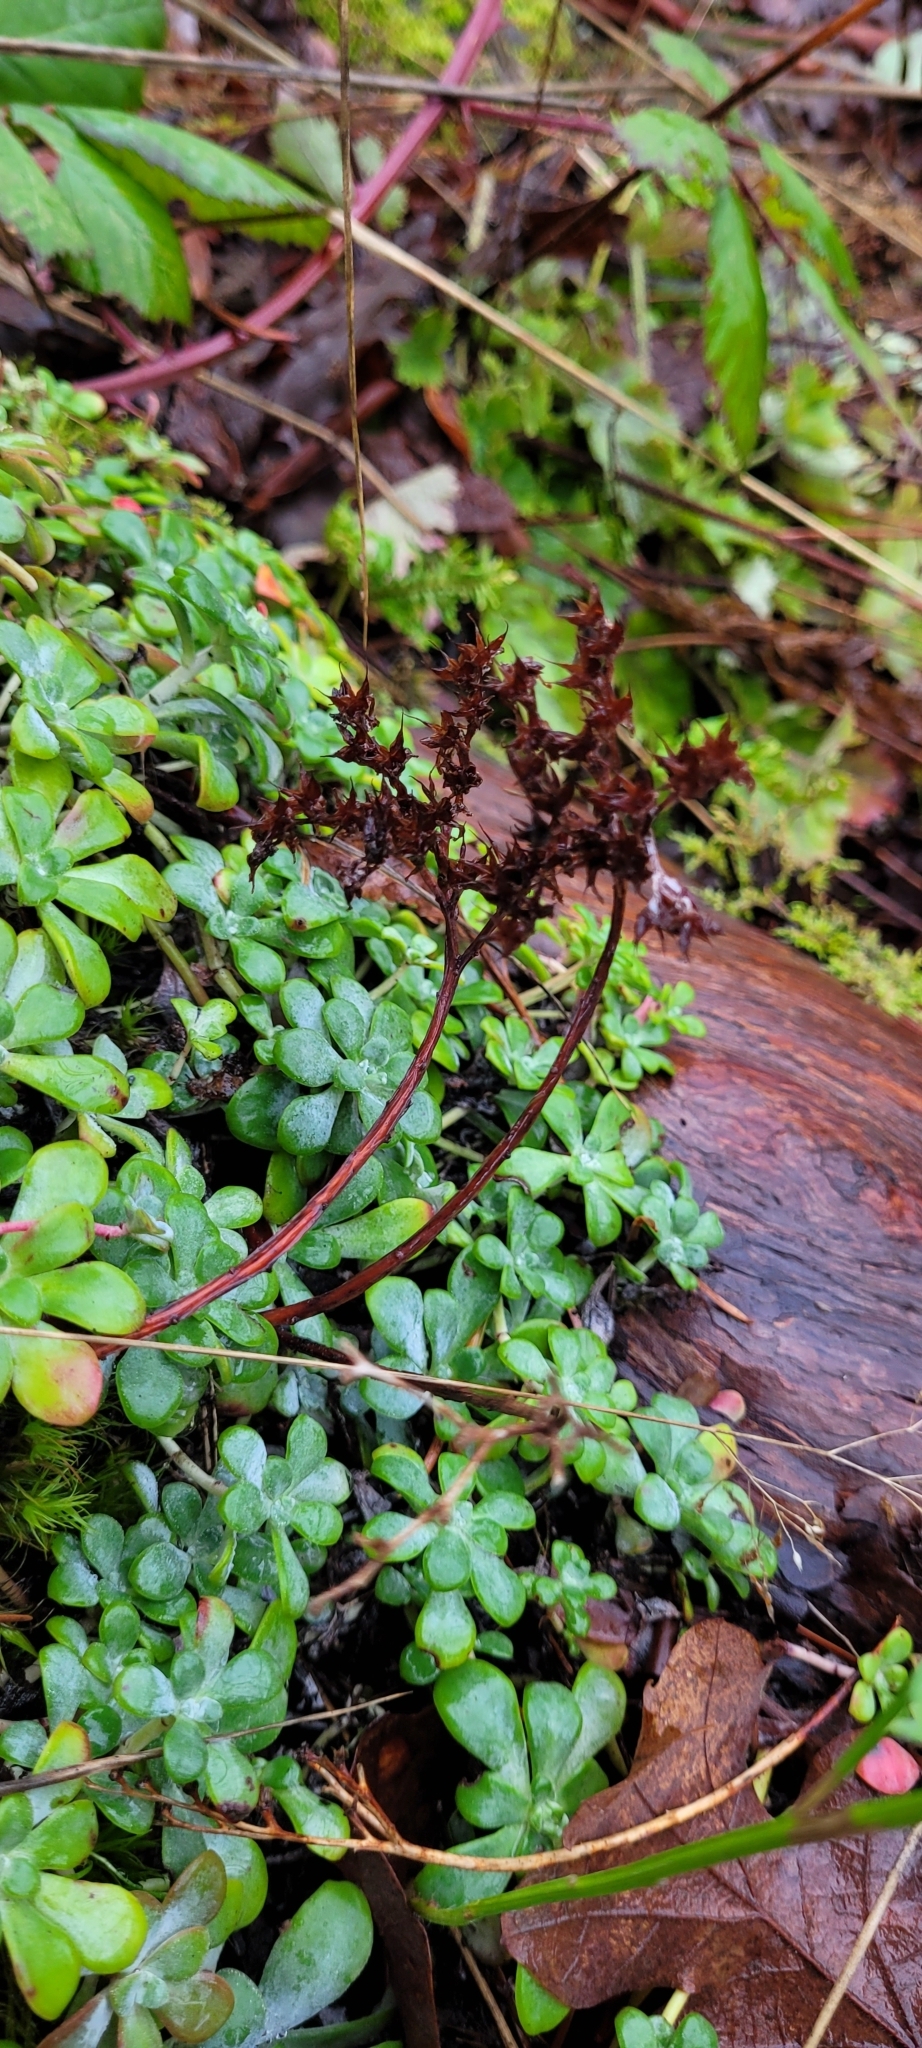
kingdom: Plantae
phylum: Tracheophyta
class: Magnoliopsida
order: Saxifragales
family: Crassulaceae
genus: Sedum
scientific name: Sedum spathulifolium
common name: Colorado stonecrop
